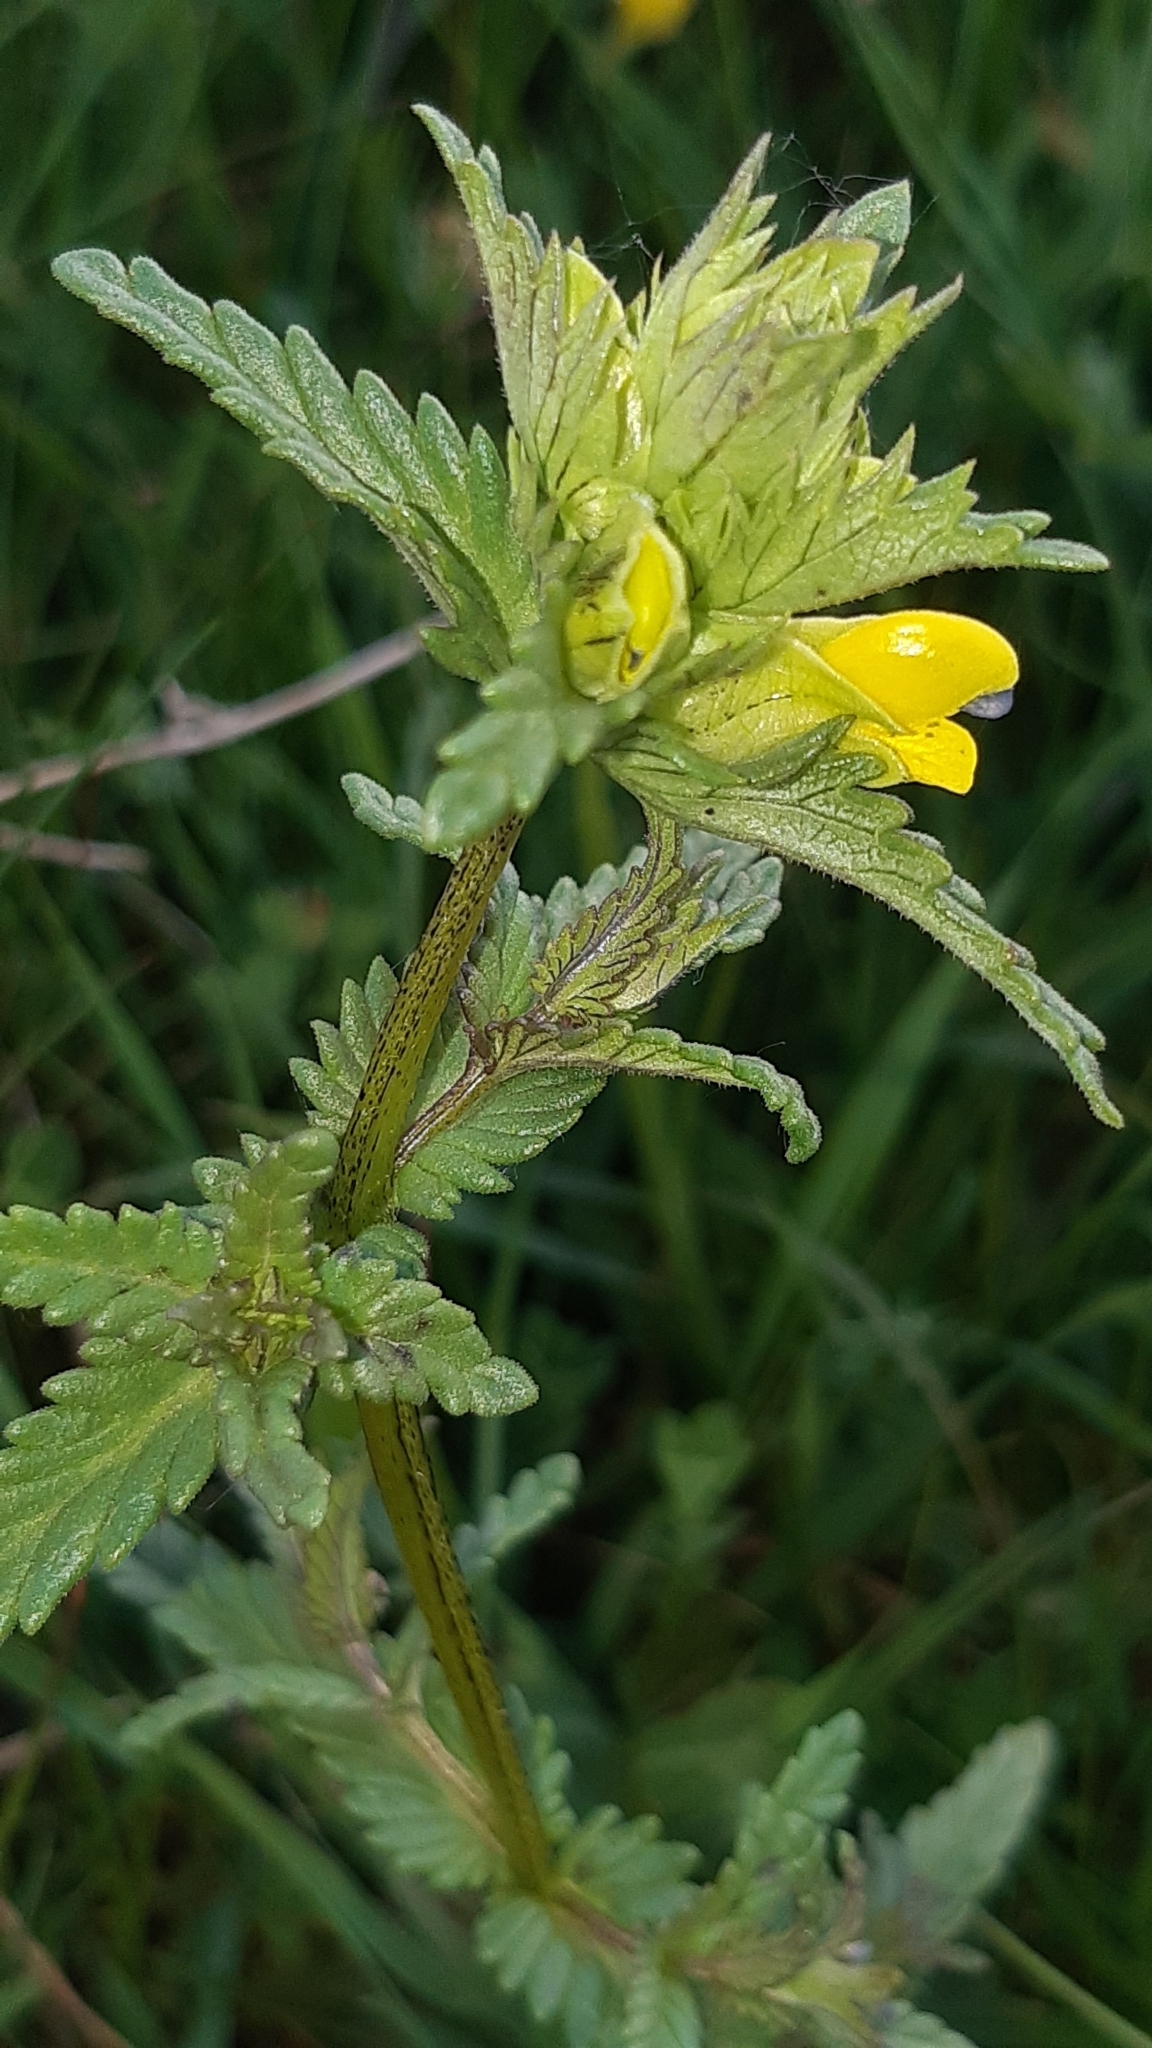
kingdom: Plantae
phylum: Tracheophyta
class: Magnoliopsida
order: Lamiales
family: Orobanchaceae
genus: Rhinanthus
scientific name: Rhinanthus minor
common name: Yellow-rattle
